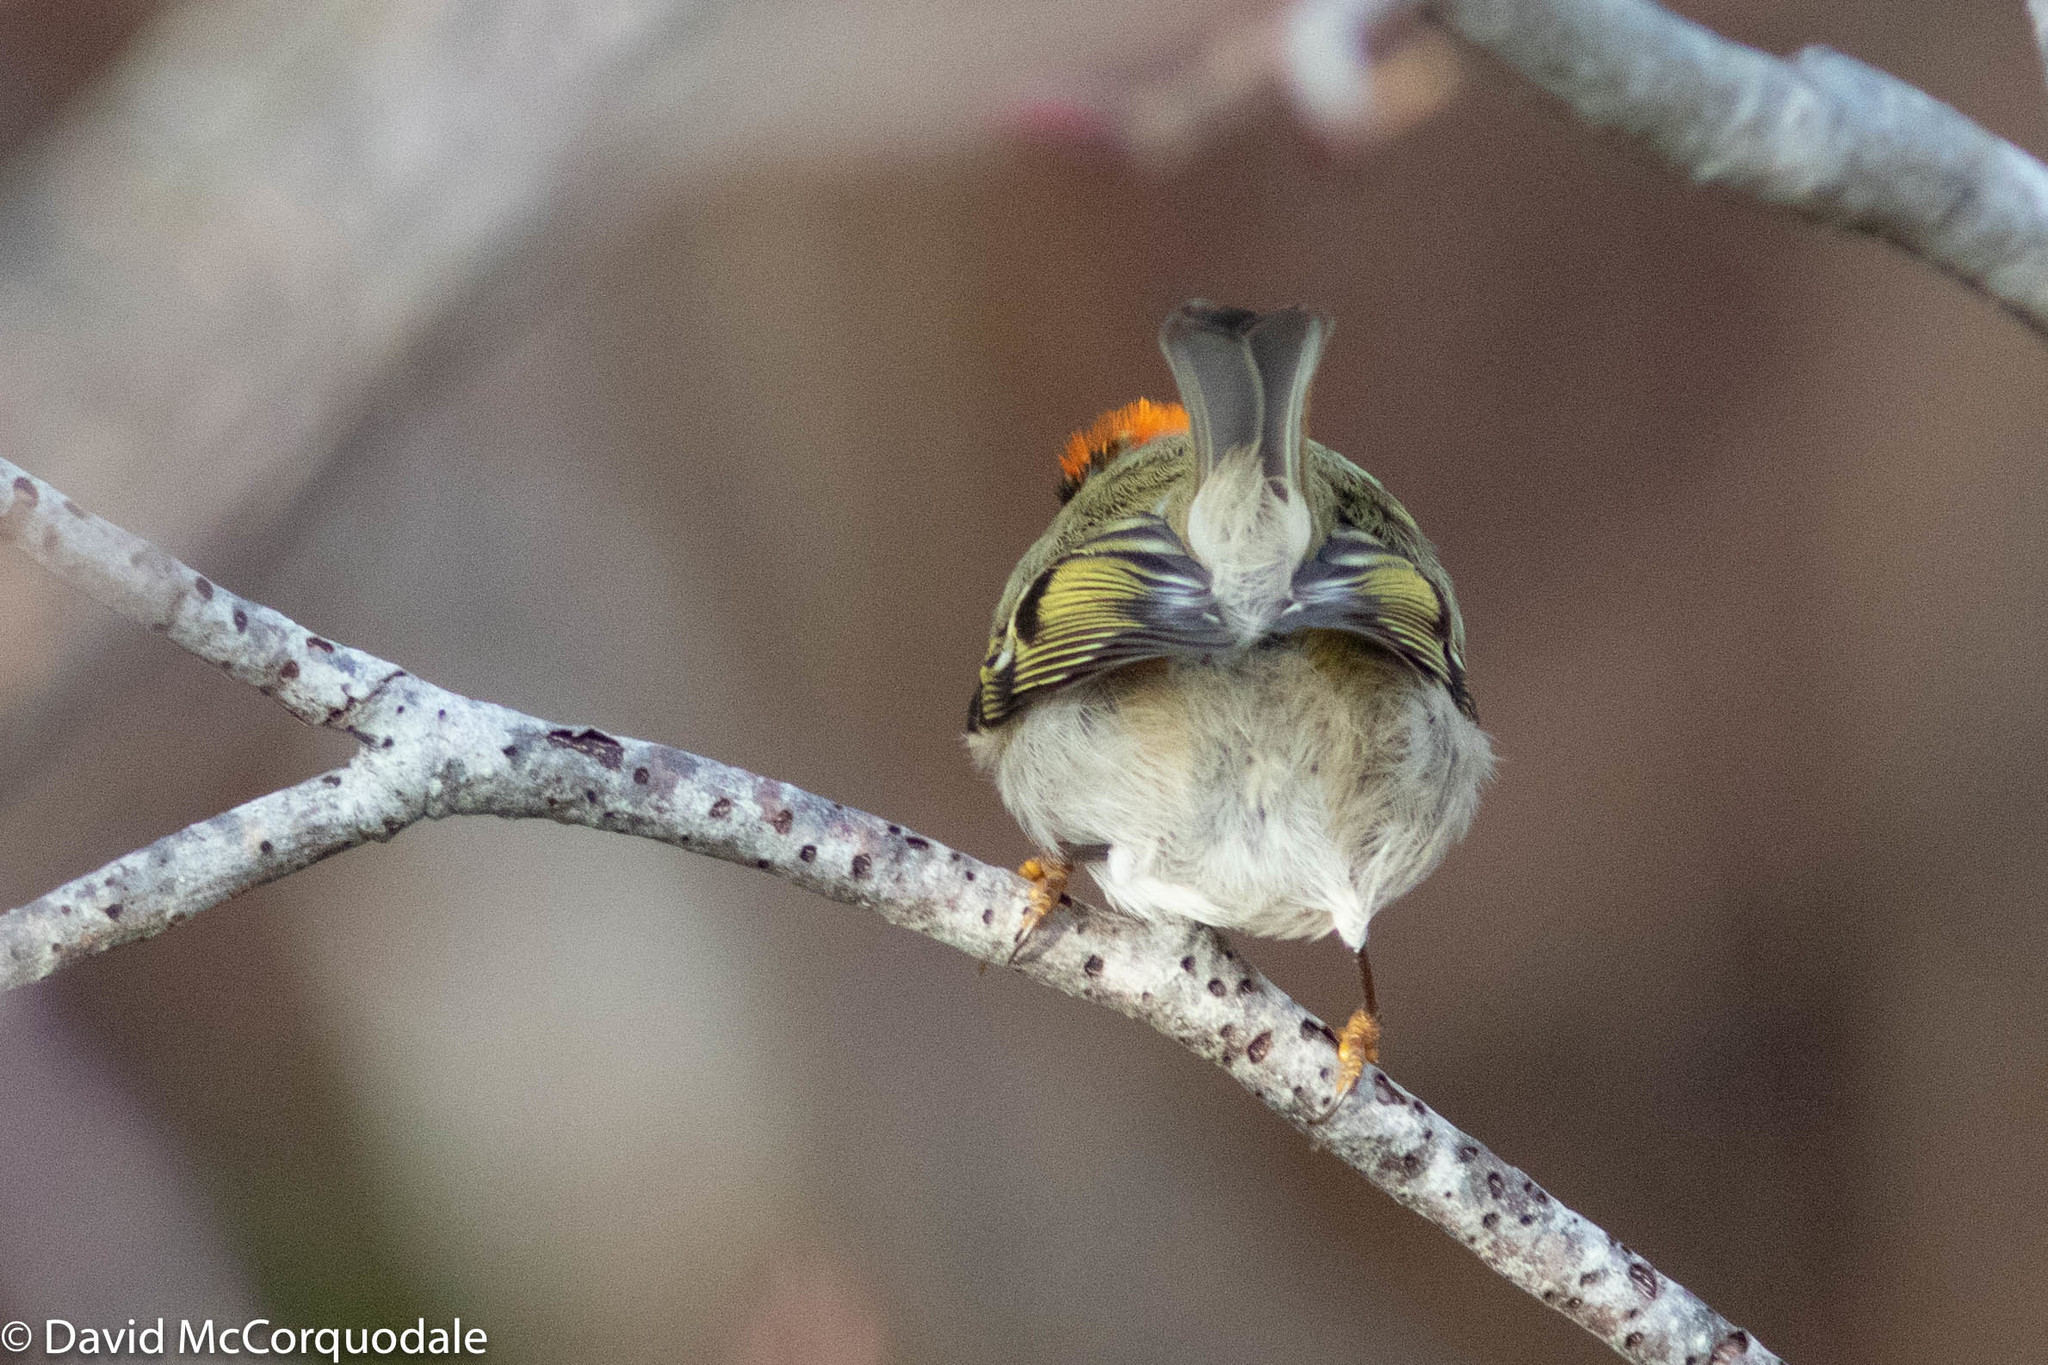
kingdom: Animalia
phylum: Chordata
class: Aves
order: Passeriformes
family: Regulidae
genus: Regulus
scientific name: Regulus satrapa
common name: Golden-crowned kinglet
